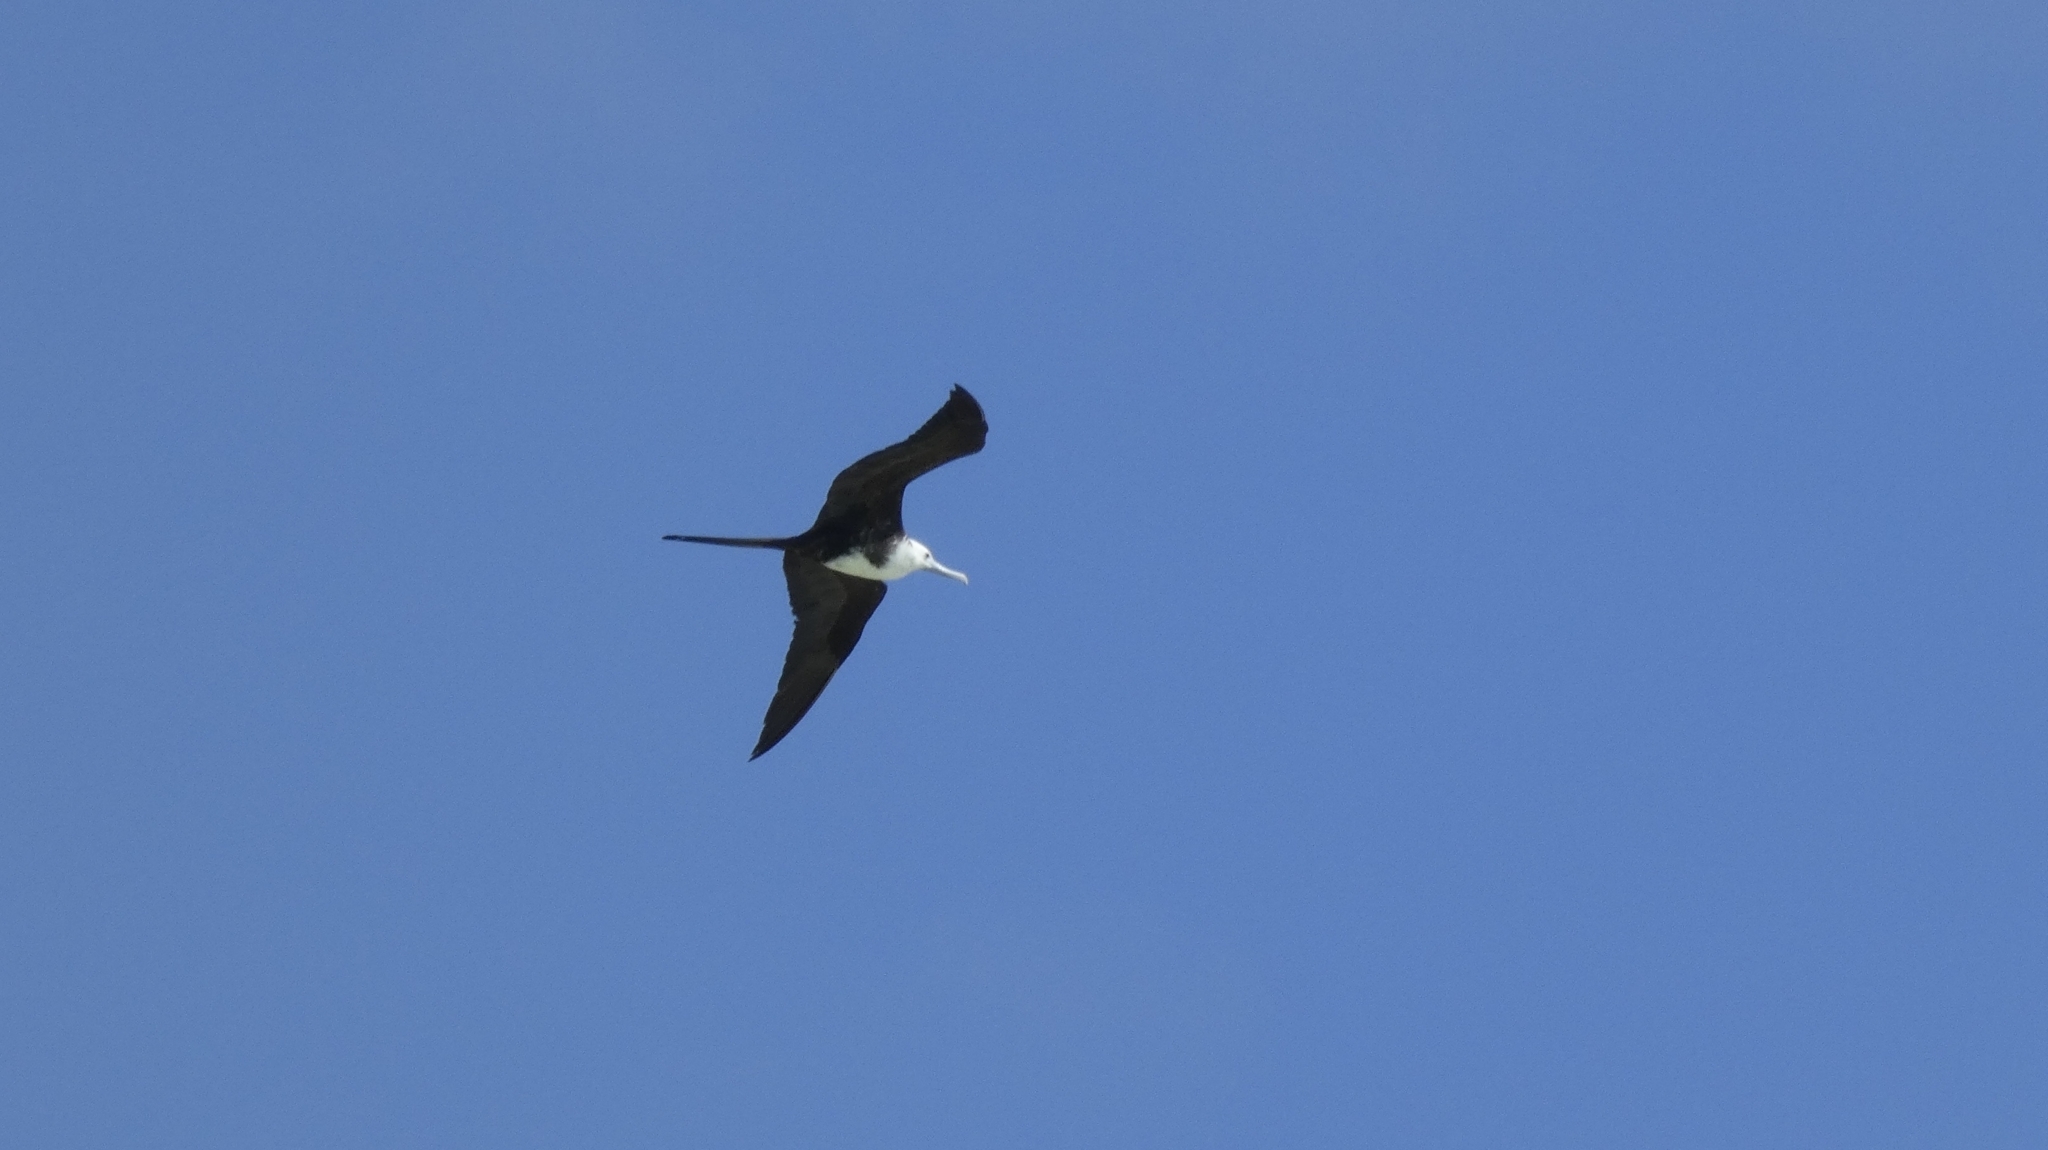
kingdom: Animalia
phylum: Chordata
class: Aves
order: Suliformes
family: Fregatidae
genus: Fregata
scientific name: Fregata magnificens
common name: Magnificent frigatebird
